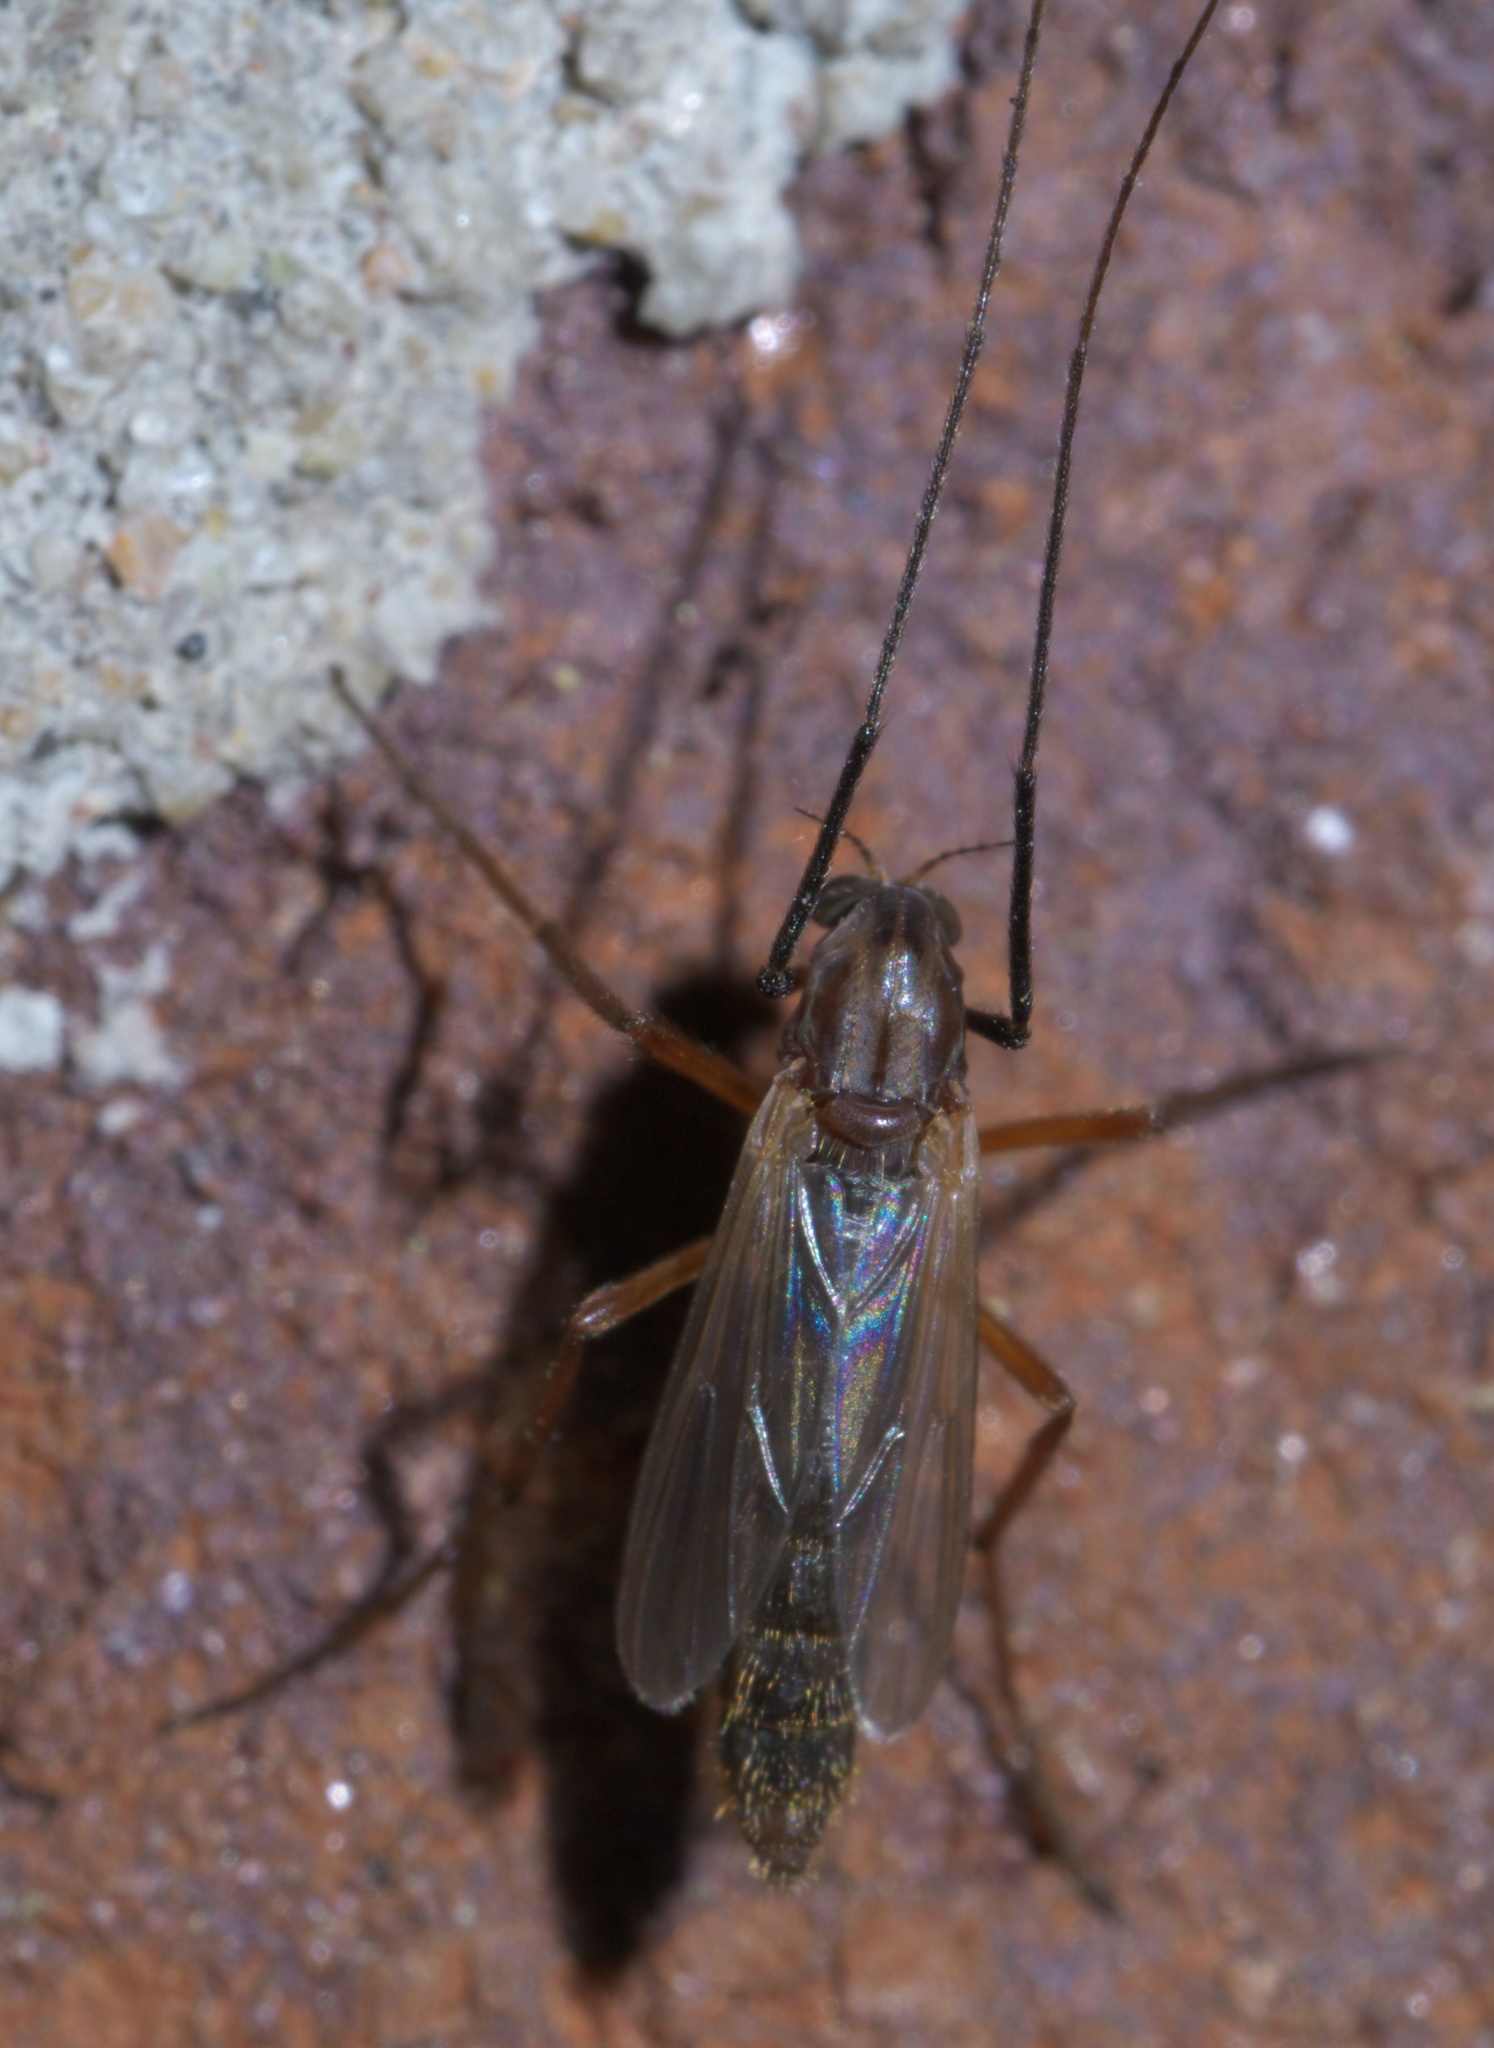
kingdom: Animalia
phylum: Arthropoda
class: Insecta
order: Diptera
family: Chironomidae
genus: Glyptotendipes
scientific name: Glyptotendipes testaceus
